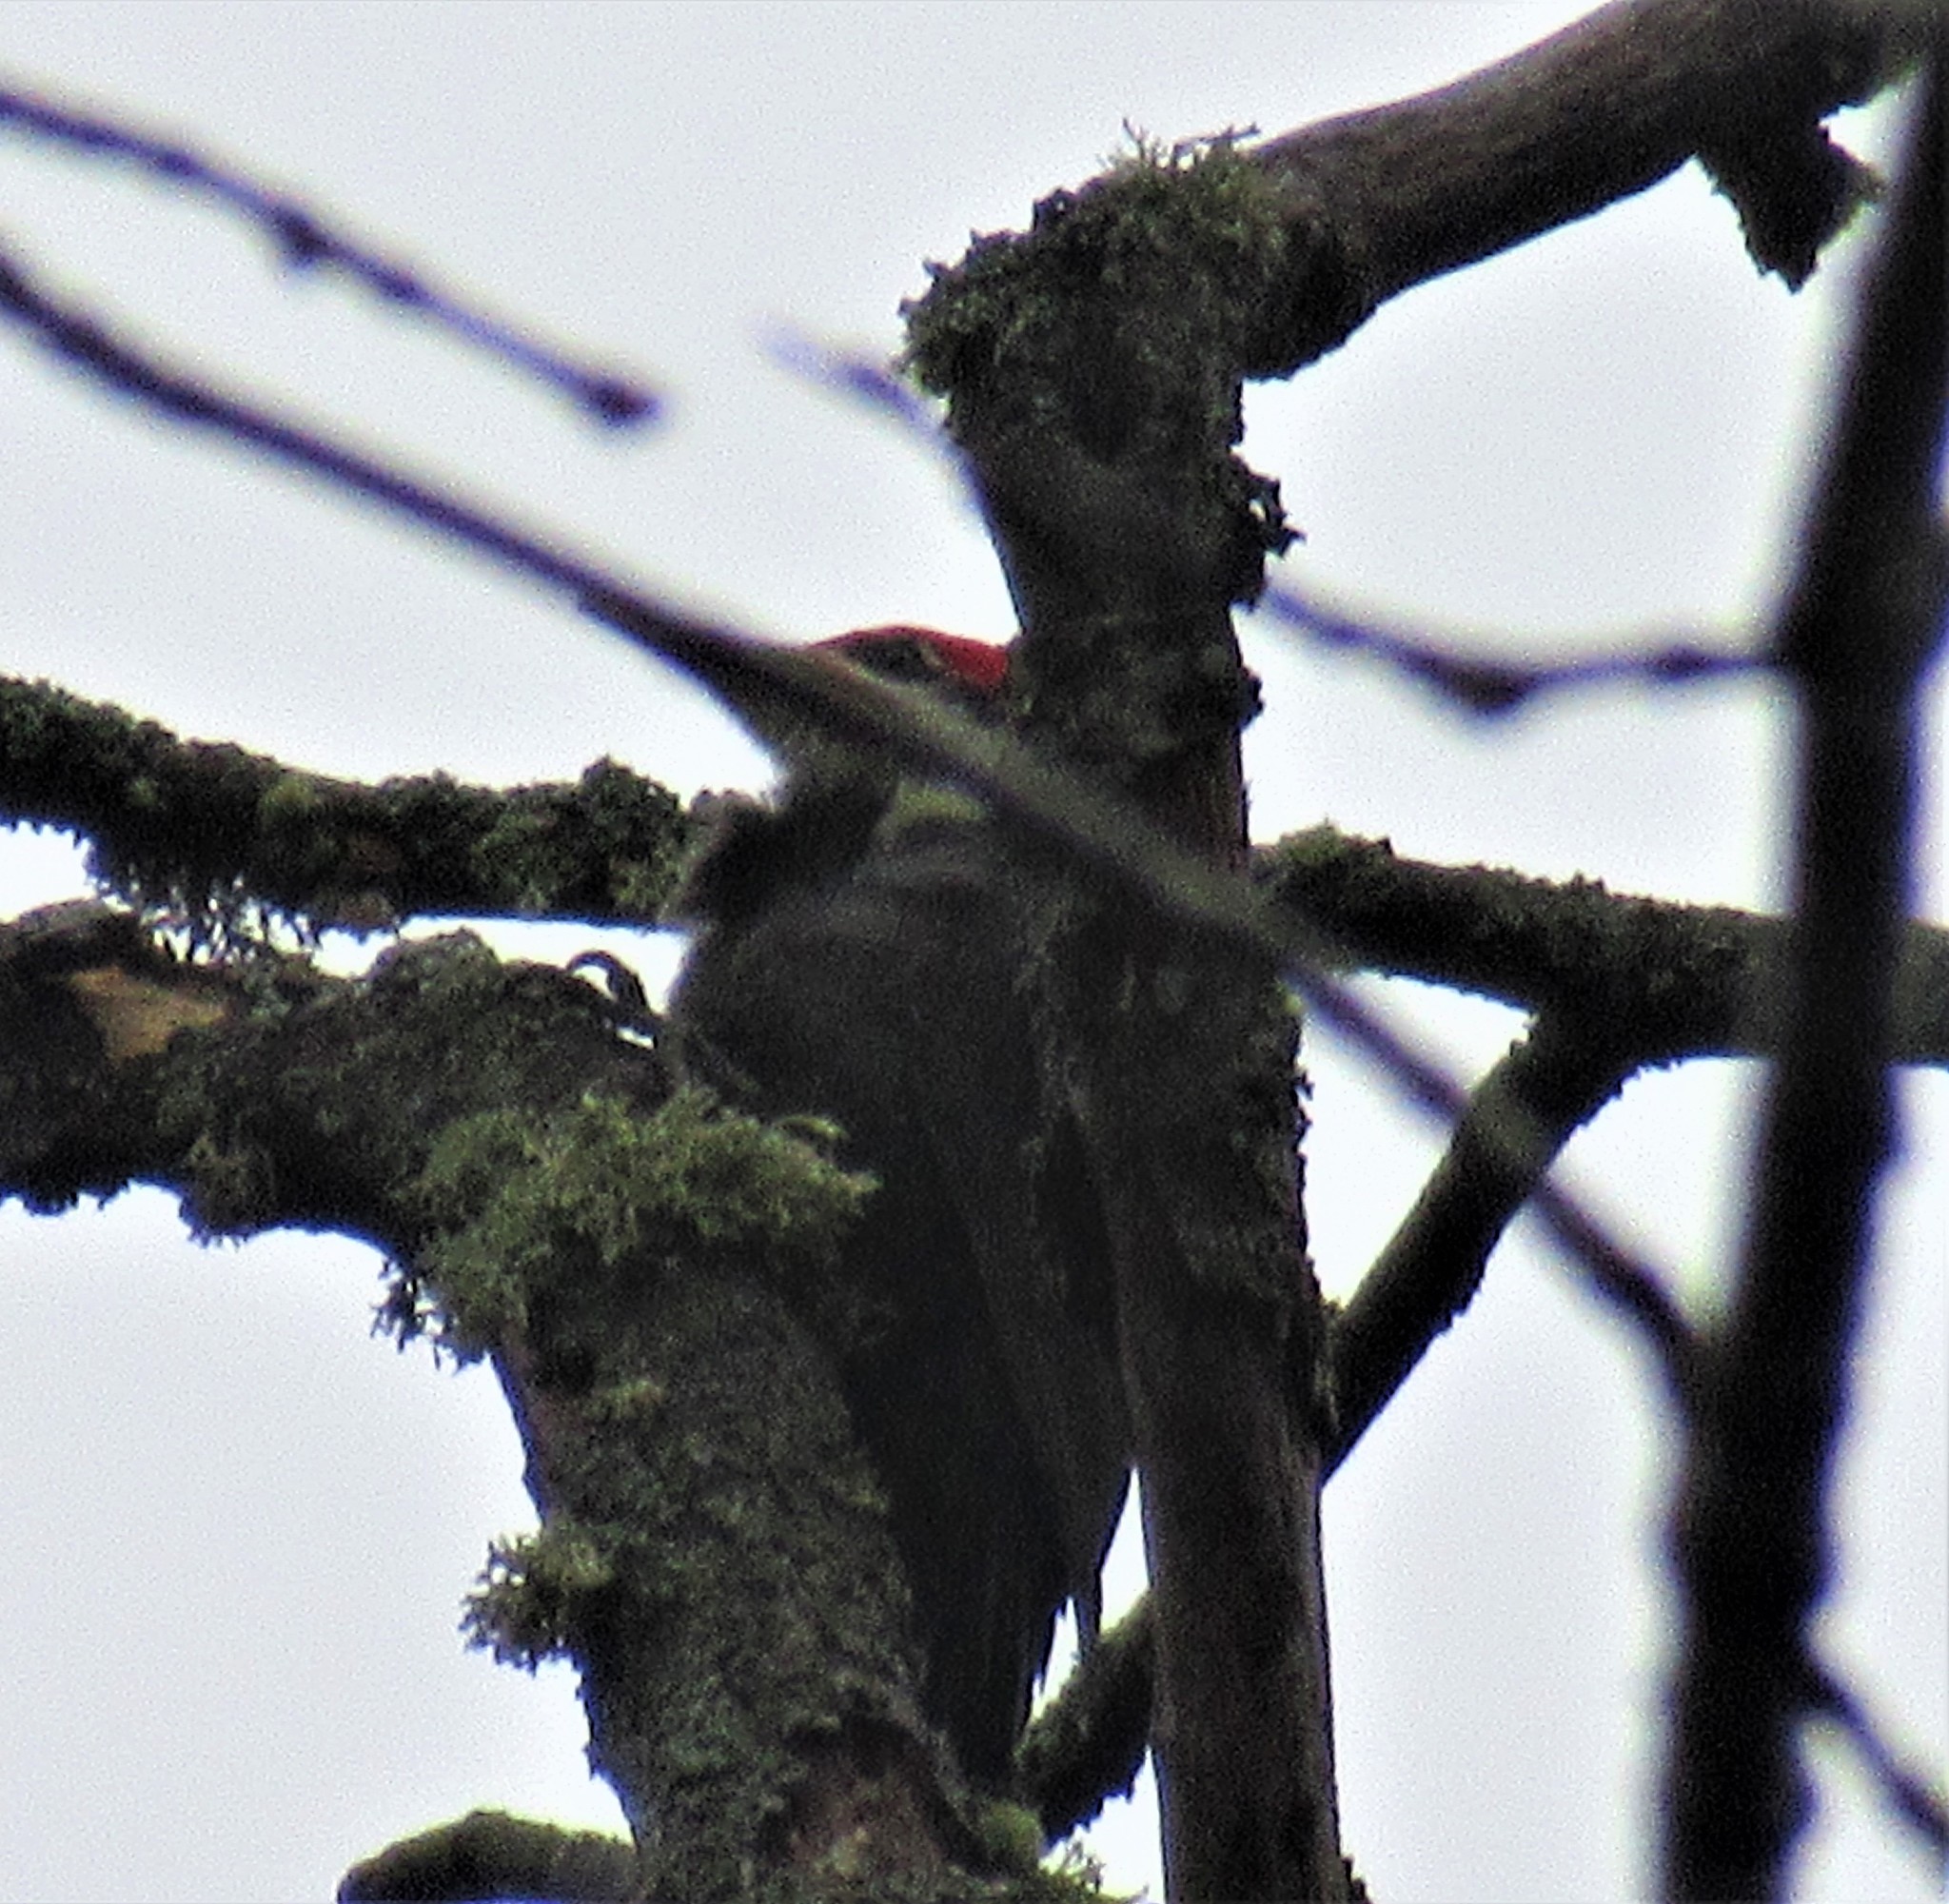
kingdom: Animalia
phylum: Chordata
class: Aves
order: Piciformes
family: Picidae
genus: Dryocopus
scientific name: Dryocopus pileatus
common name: Pileated woodpecker
